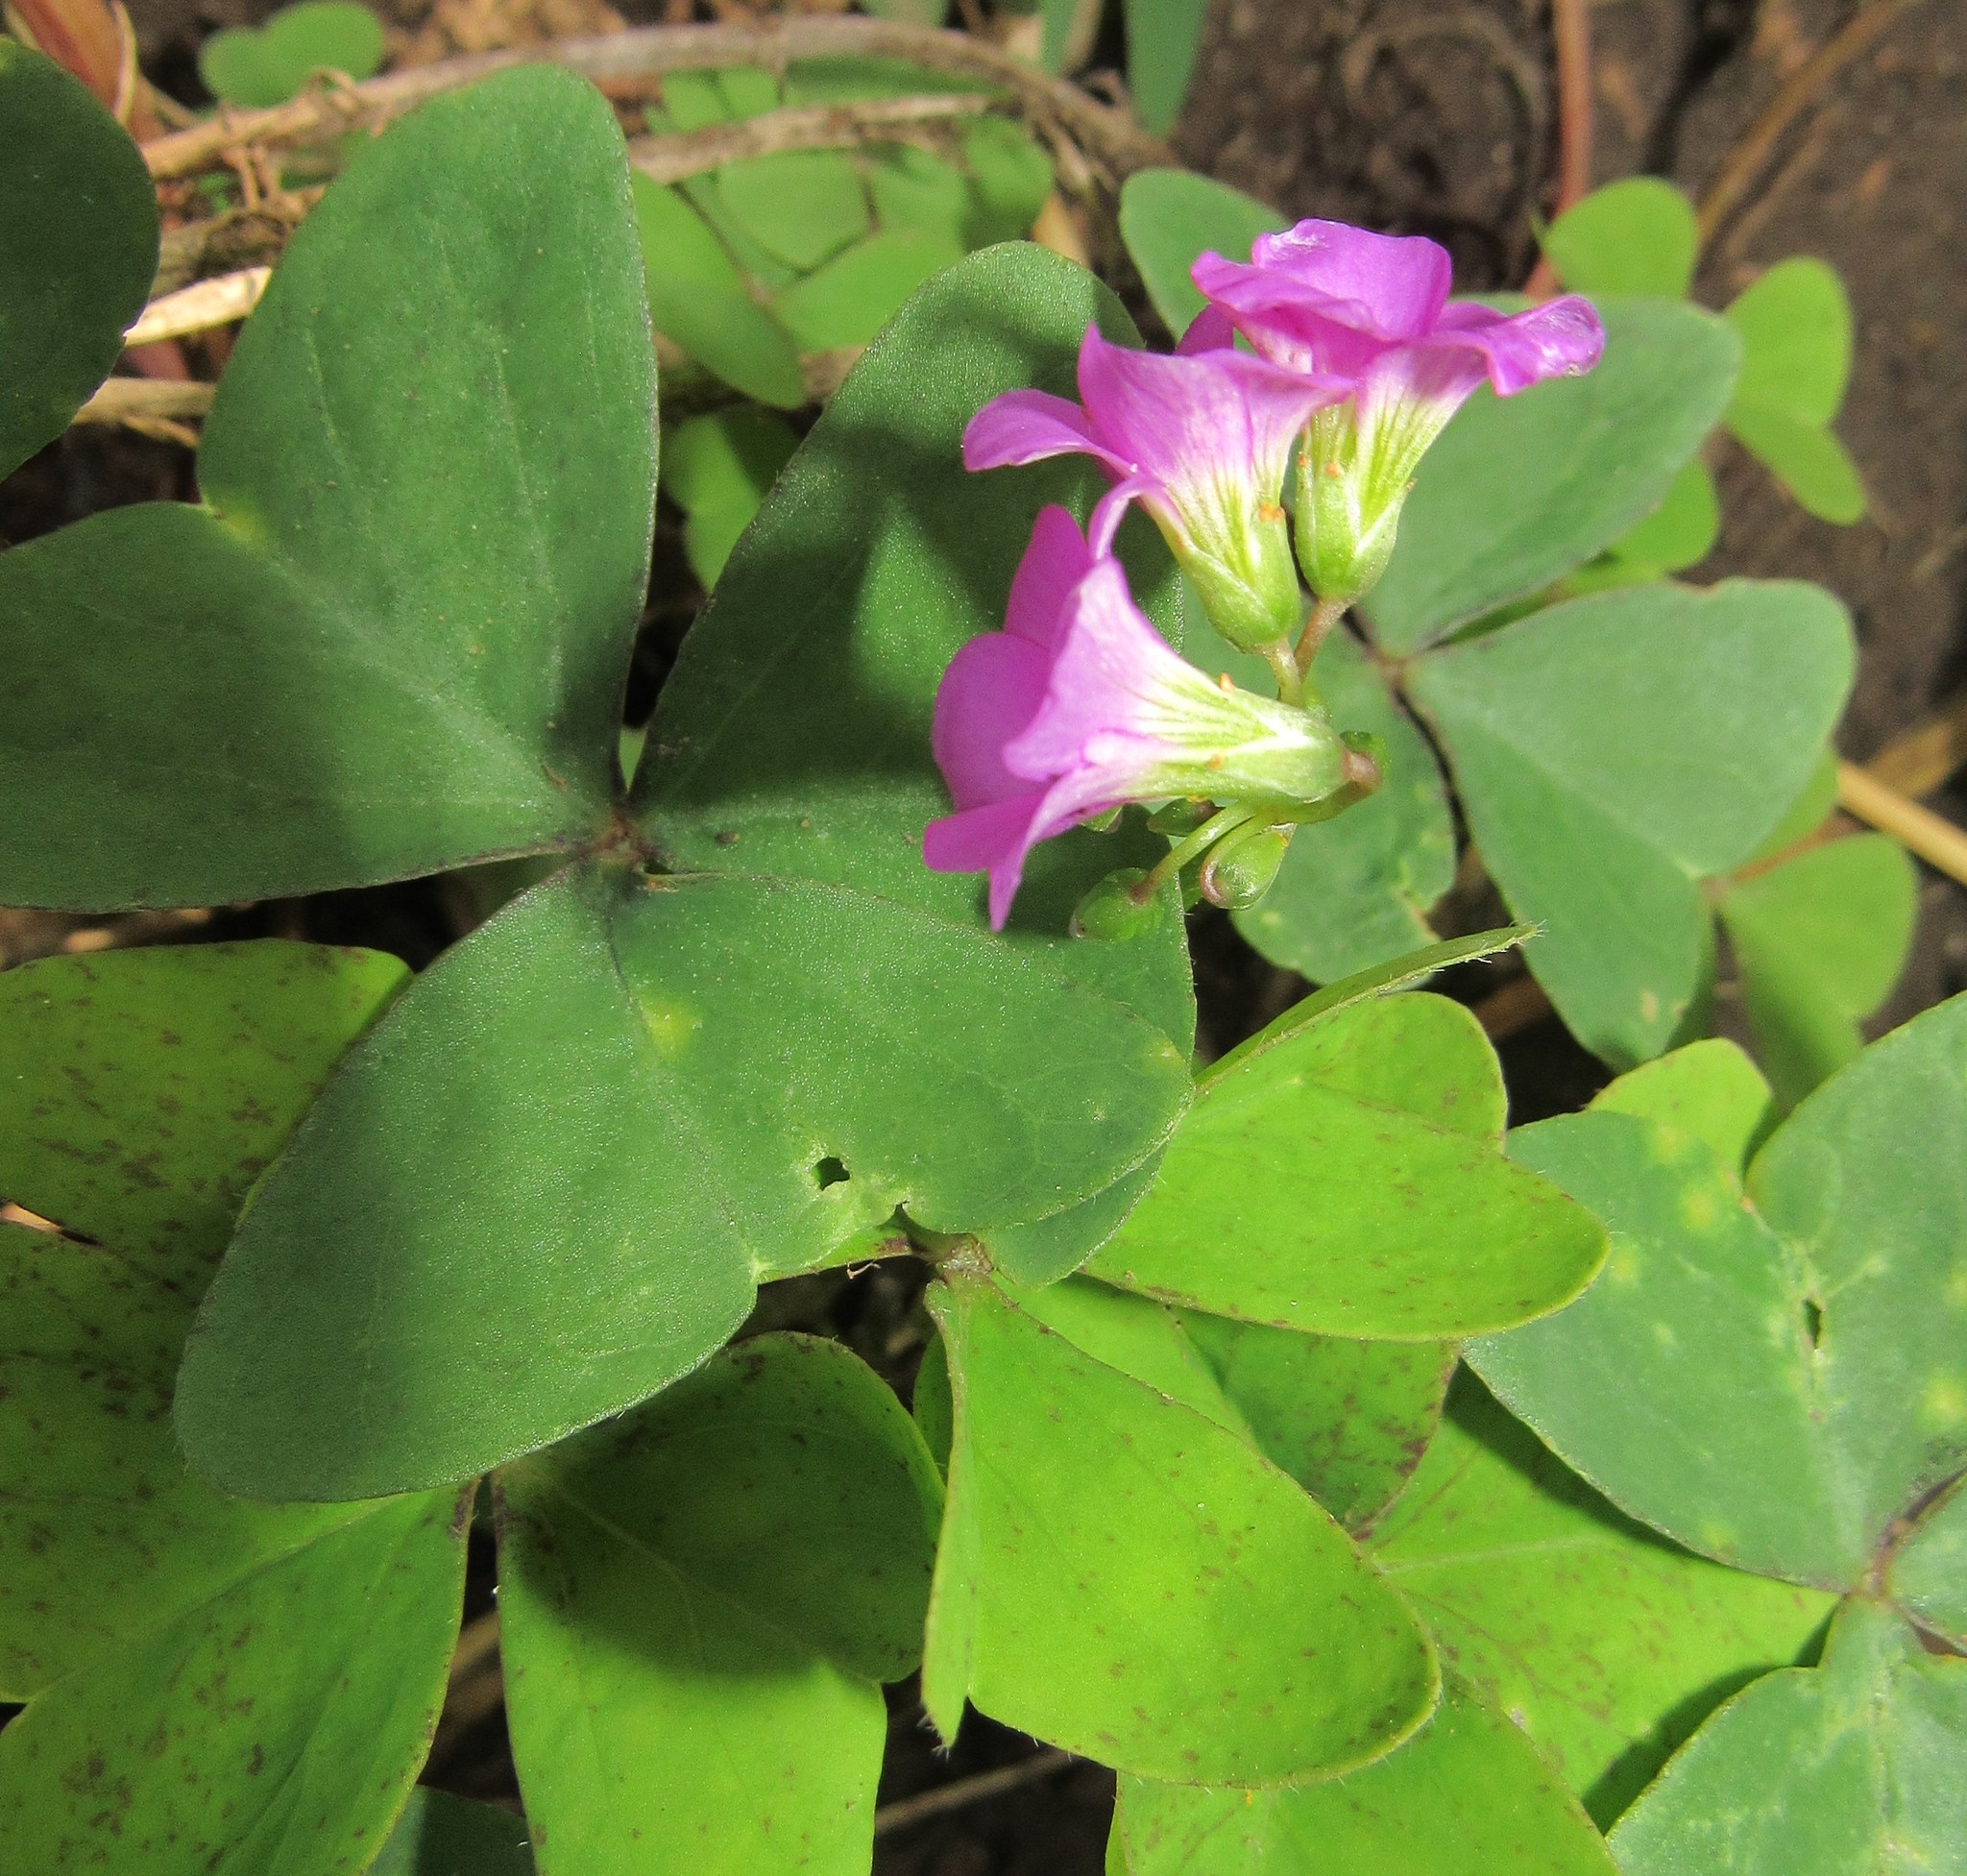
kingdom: Plantae
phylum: Tracheophyta
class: Magnoliopsida
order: Oxalidales
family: Oxalidaceae
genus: Oxalis
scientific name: Oxalis latifolia
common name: Garden pink-sorrel
